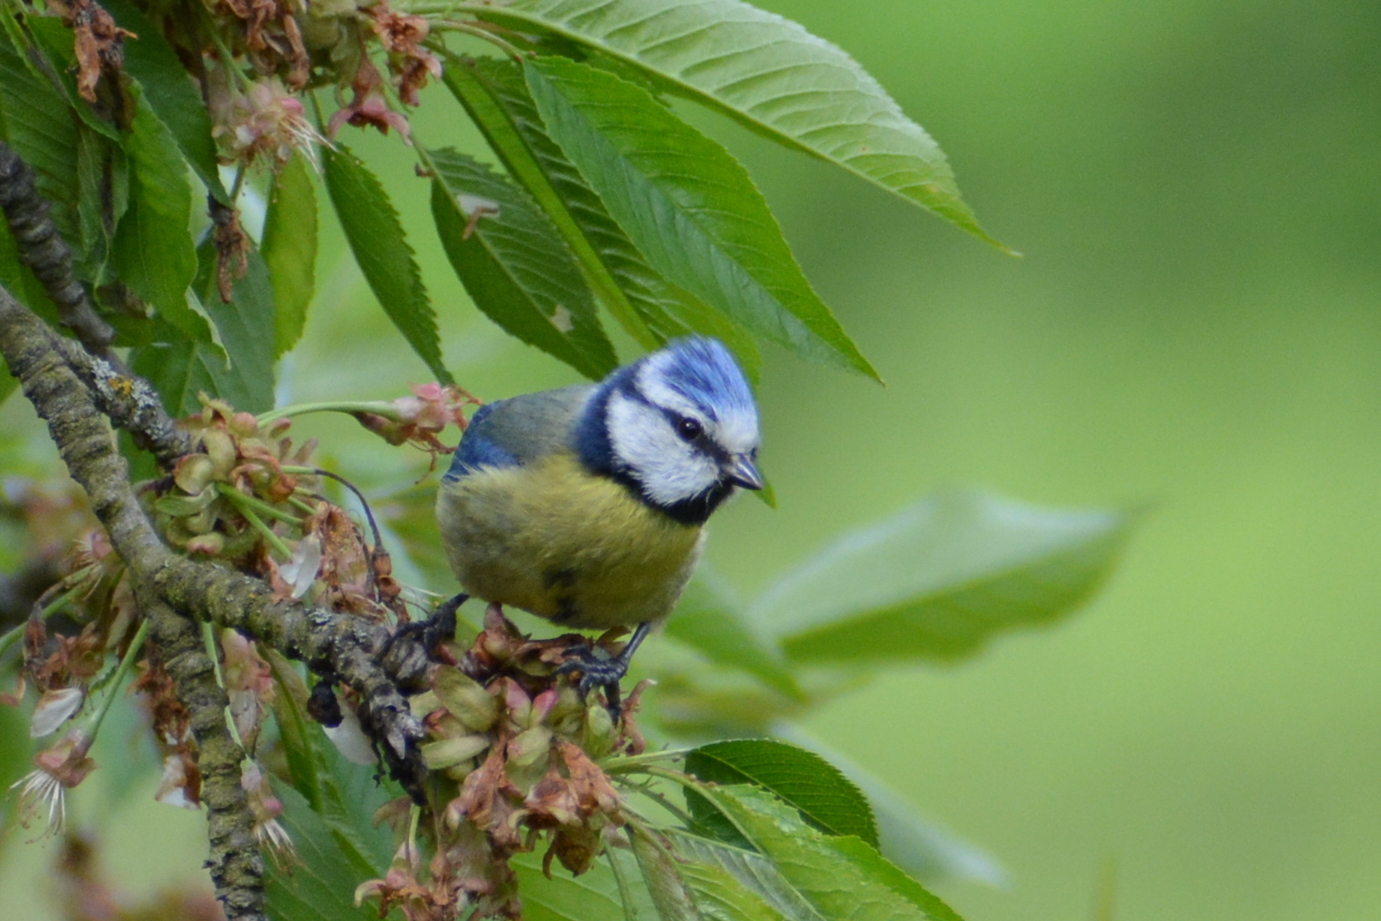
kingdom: Animalia
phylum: Chordata
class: Aves
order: Passeriformes
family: Paridae
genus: Cyanistes
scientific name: Cyanistes caeruleus
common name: Eurasian blue tit
